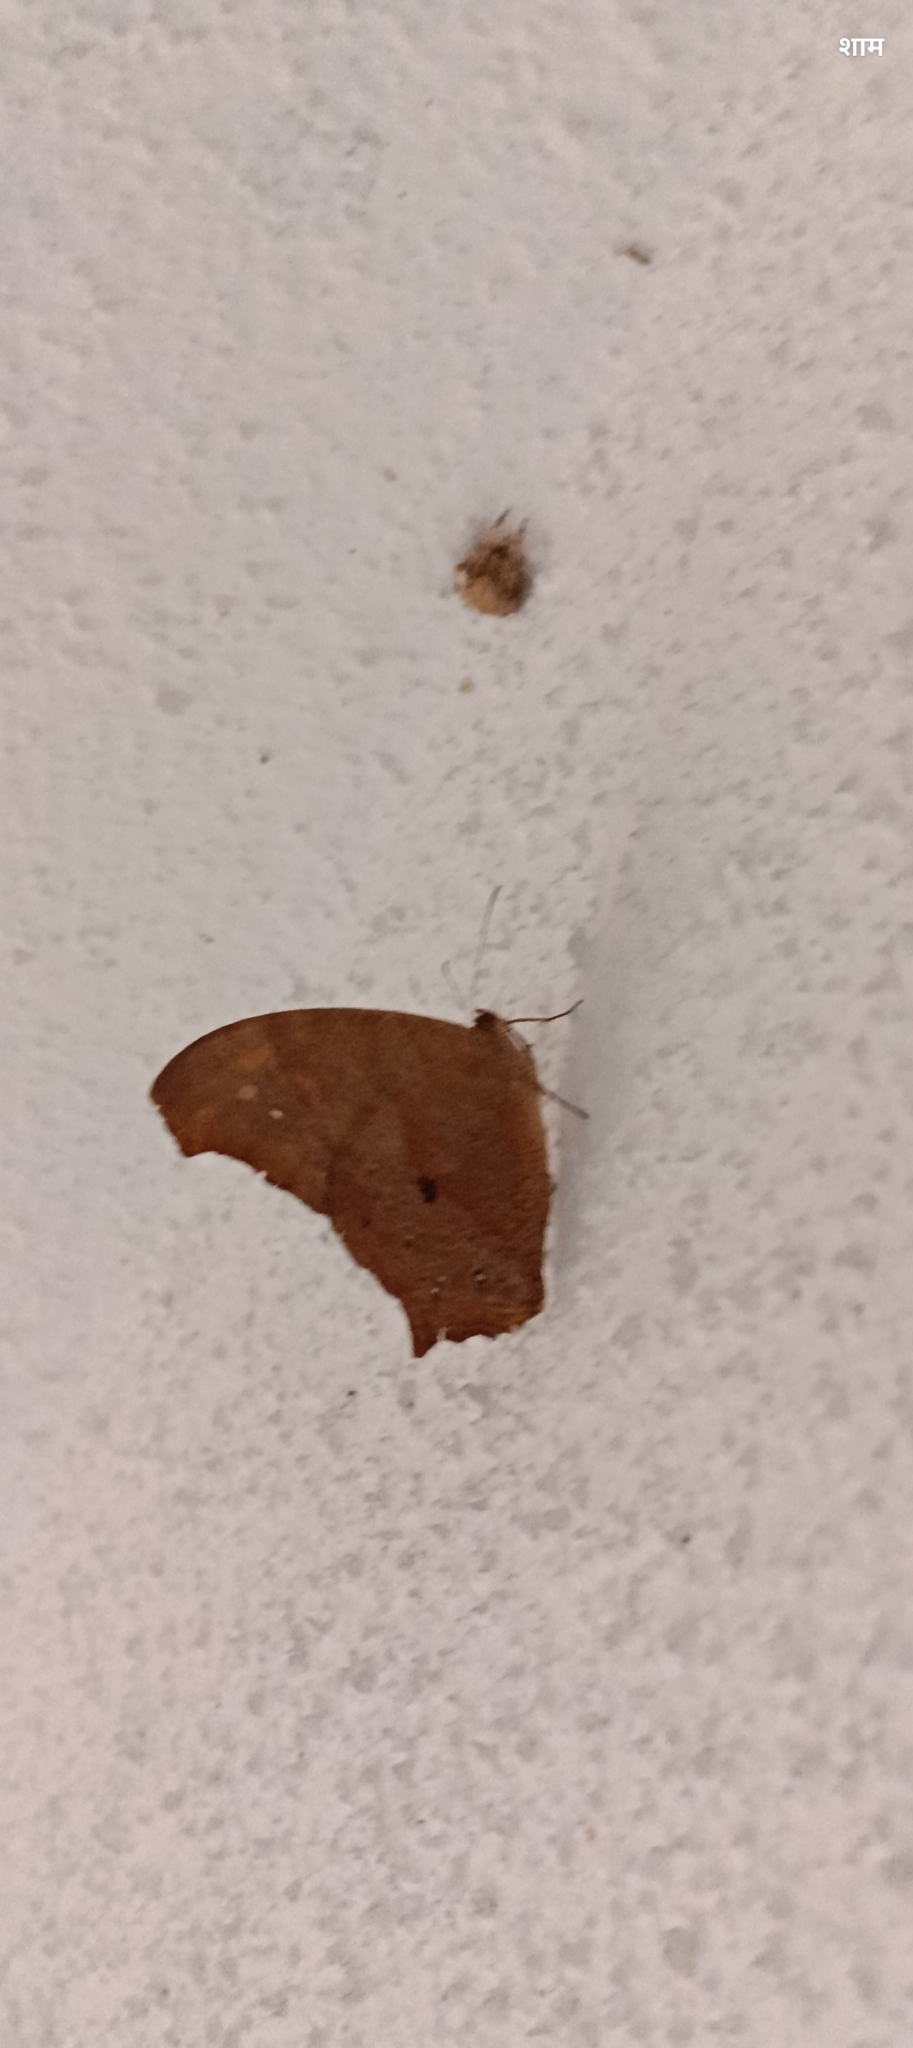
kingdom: Animalia
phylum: Arthropoda
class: Insecta
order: Lepidoptera
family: Nymphalidae
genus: Melanitis
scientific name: Melanitis leda
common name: Twilight brown
